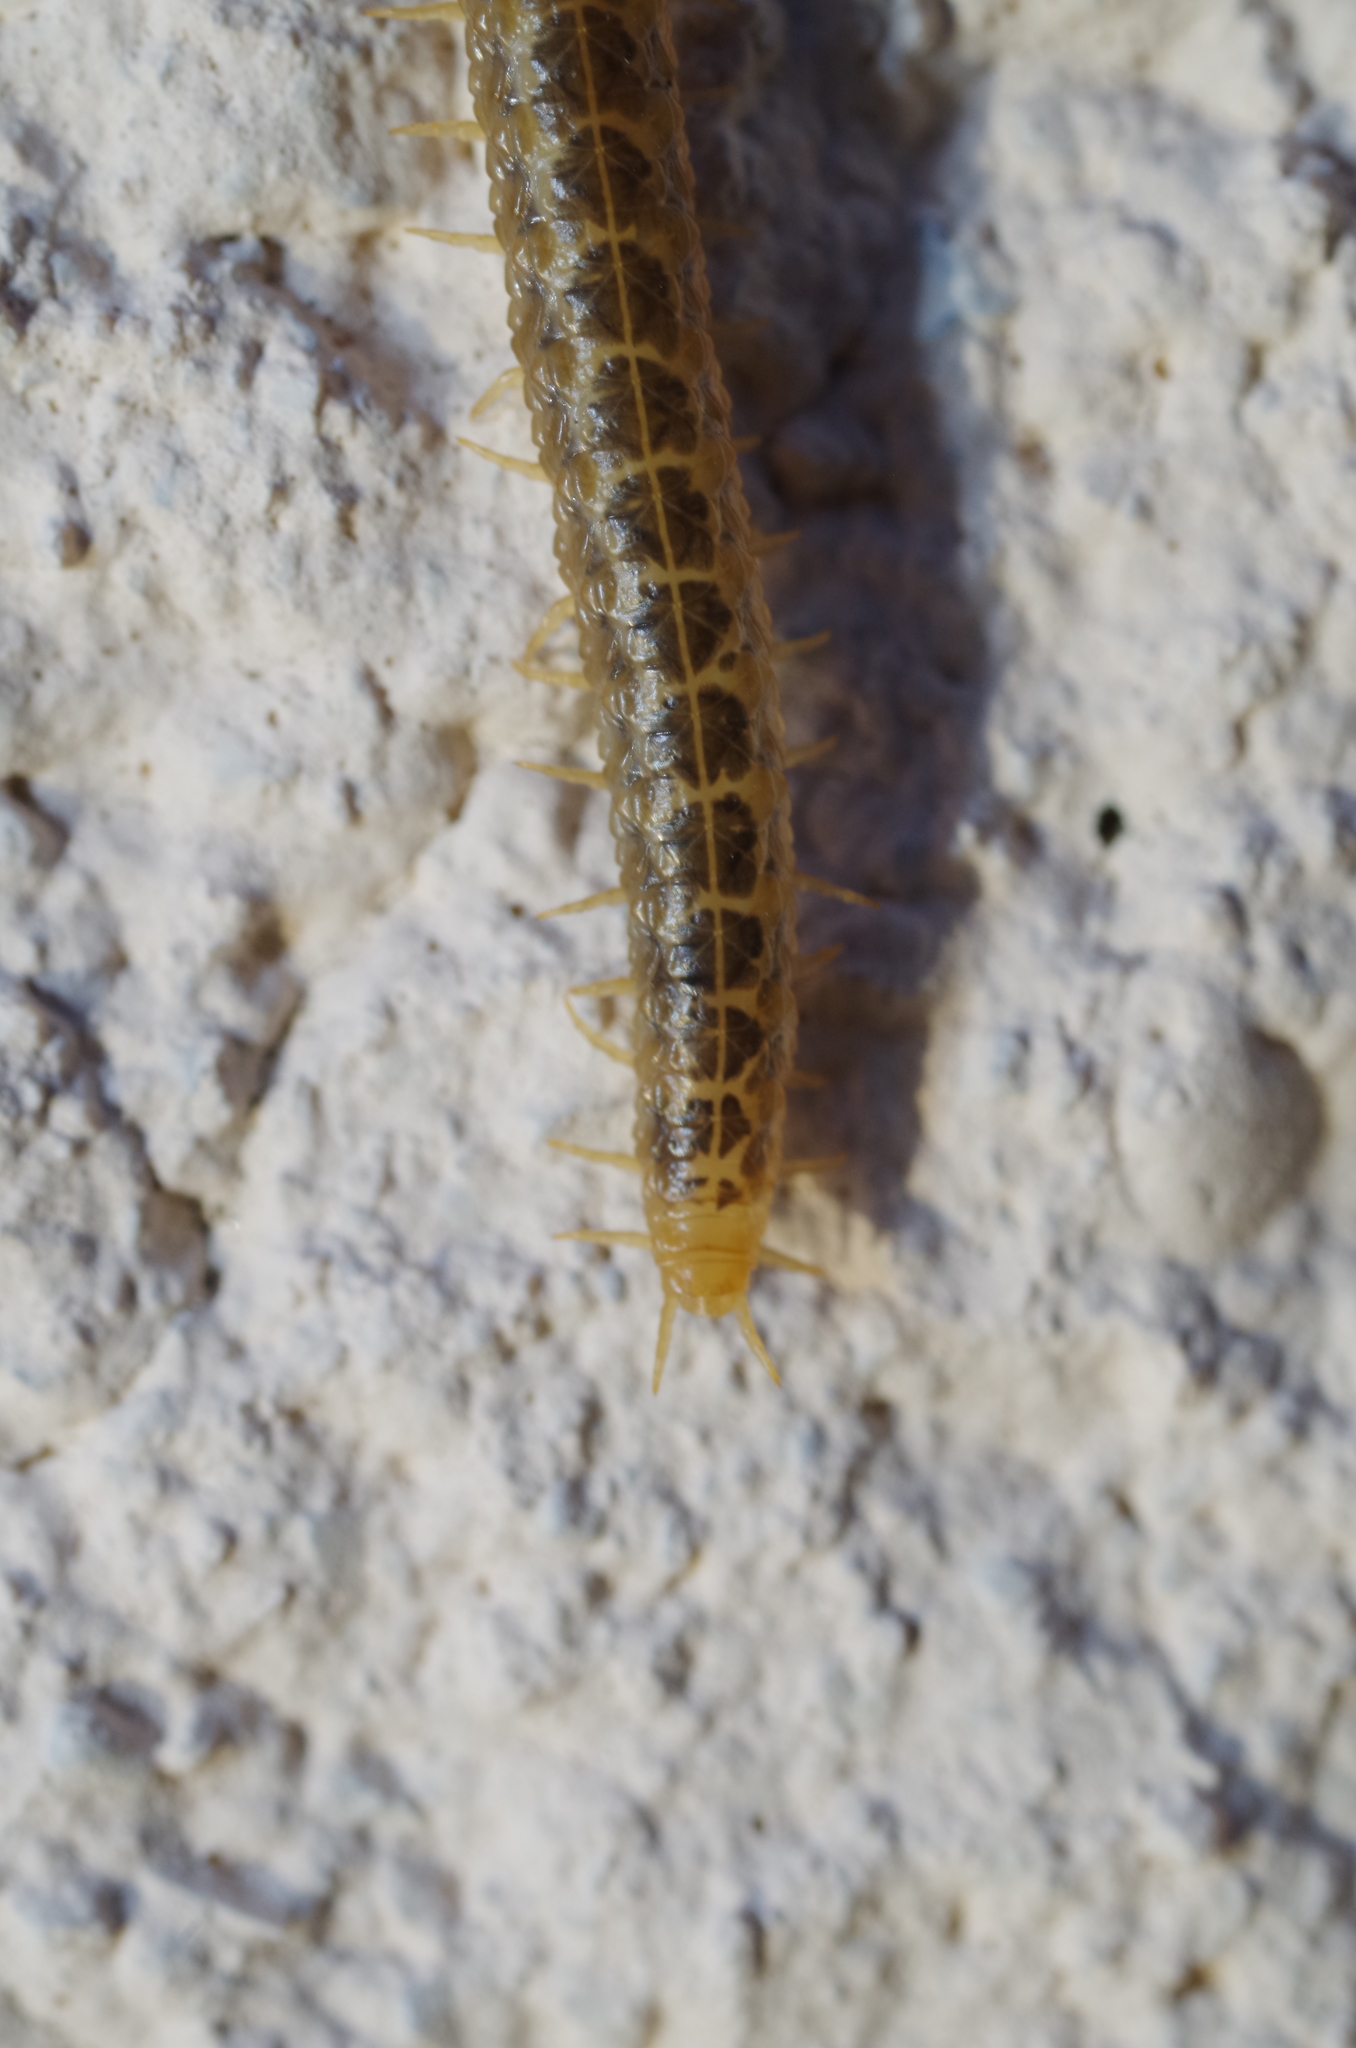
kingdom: Animalia
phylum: Arthropoda
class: Chilopoda
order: Geophilomorpha
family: Dignathodontidae
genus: Henia
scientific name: Henia vesuviana
